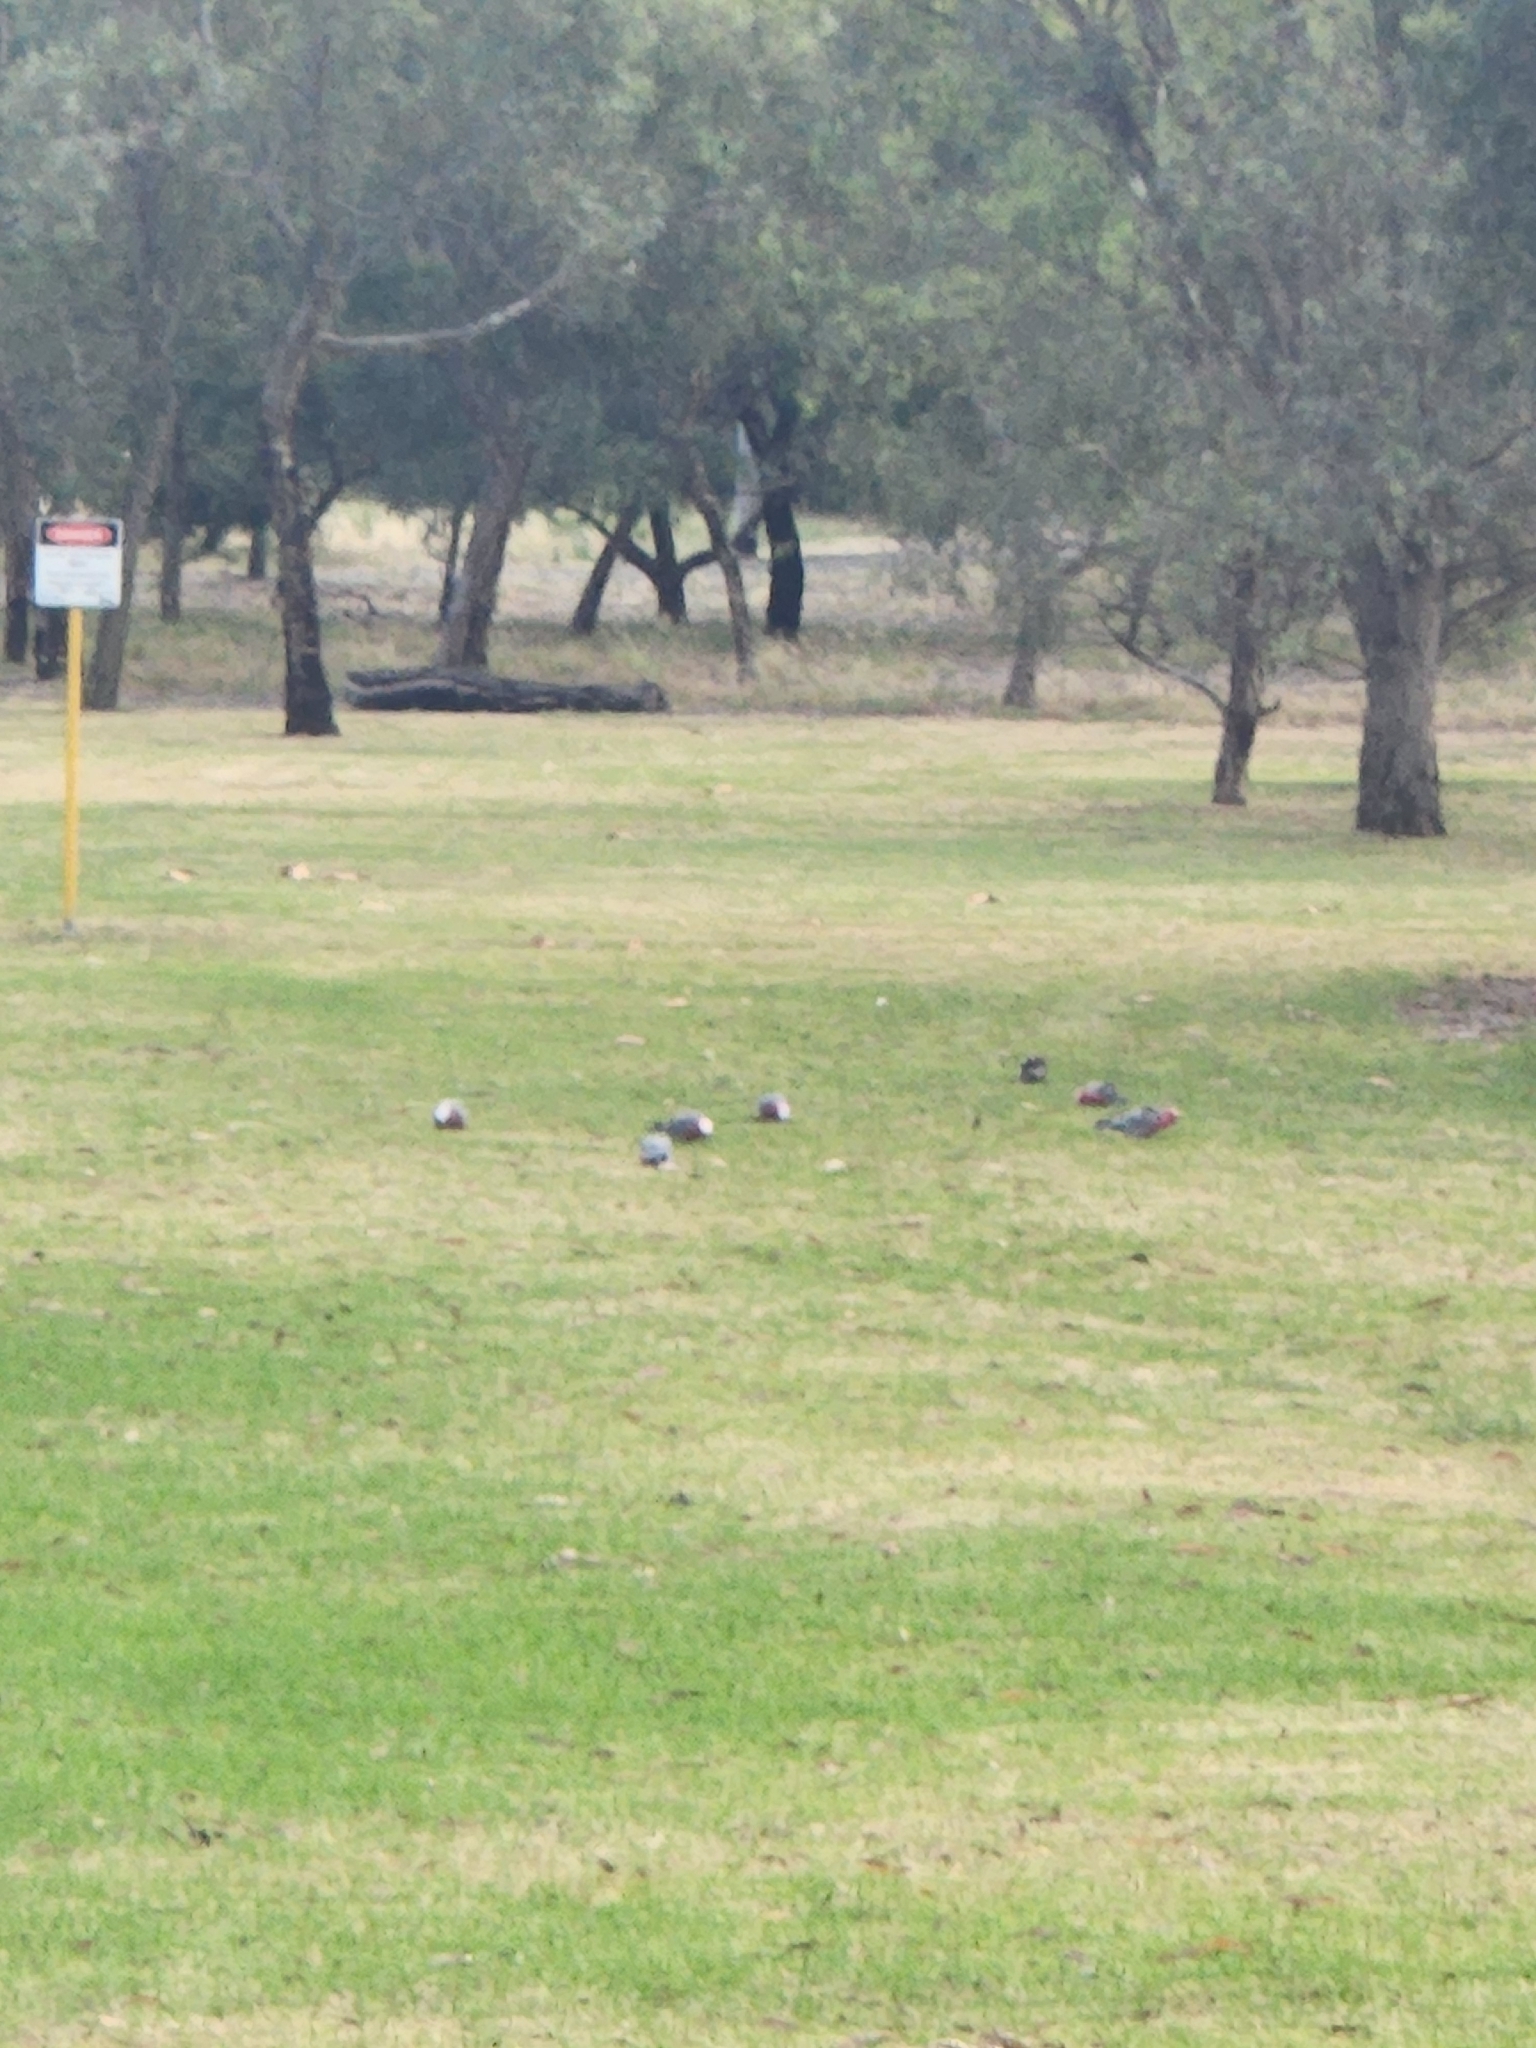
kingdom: Animalia
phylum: Chordata
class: Aves
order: Psittaciformes
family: Psittacidae
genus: Eolophus
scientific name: Eolophus roseicapilla
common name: Galah
